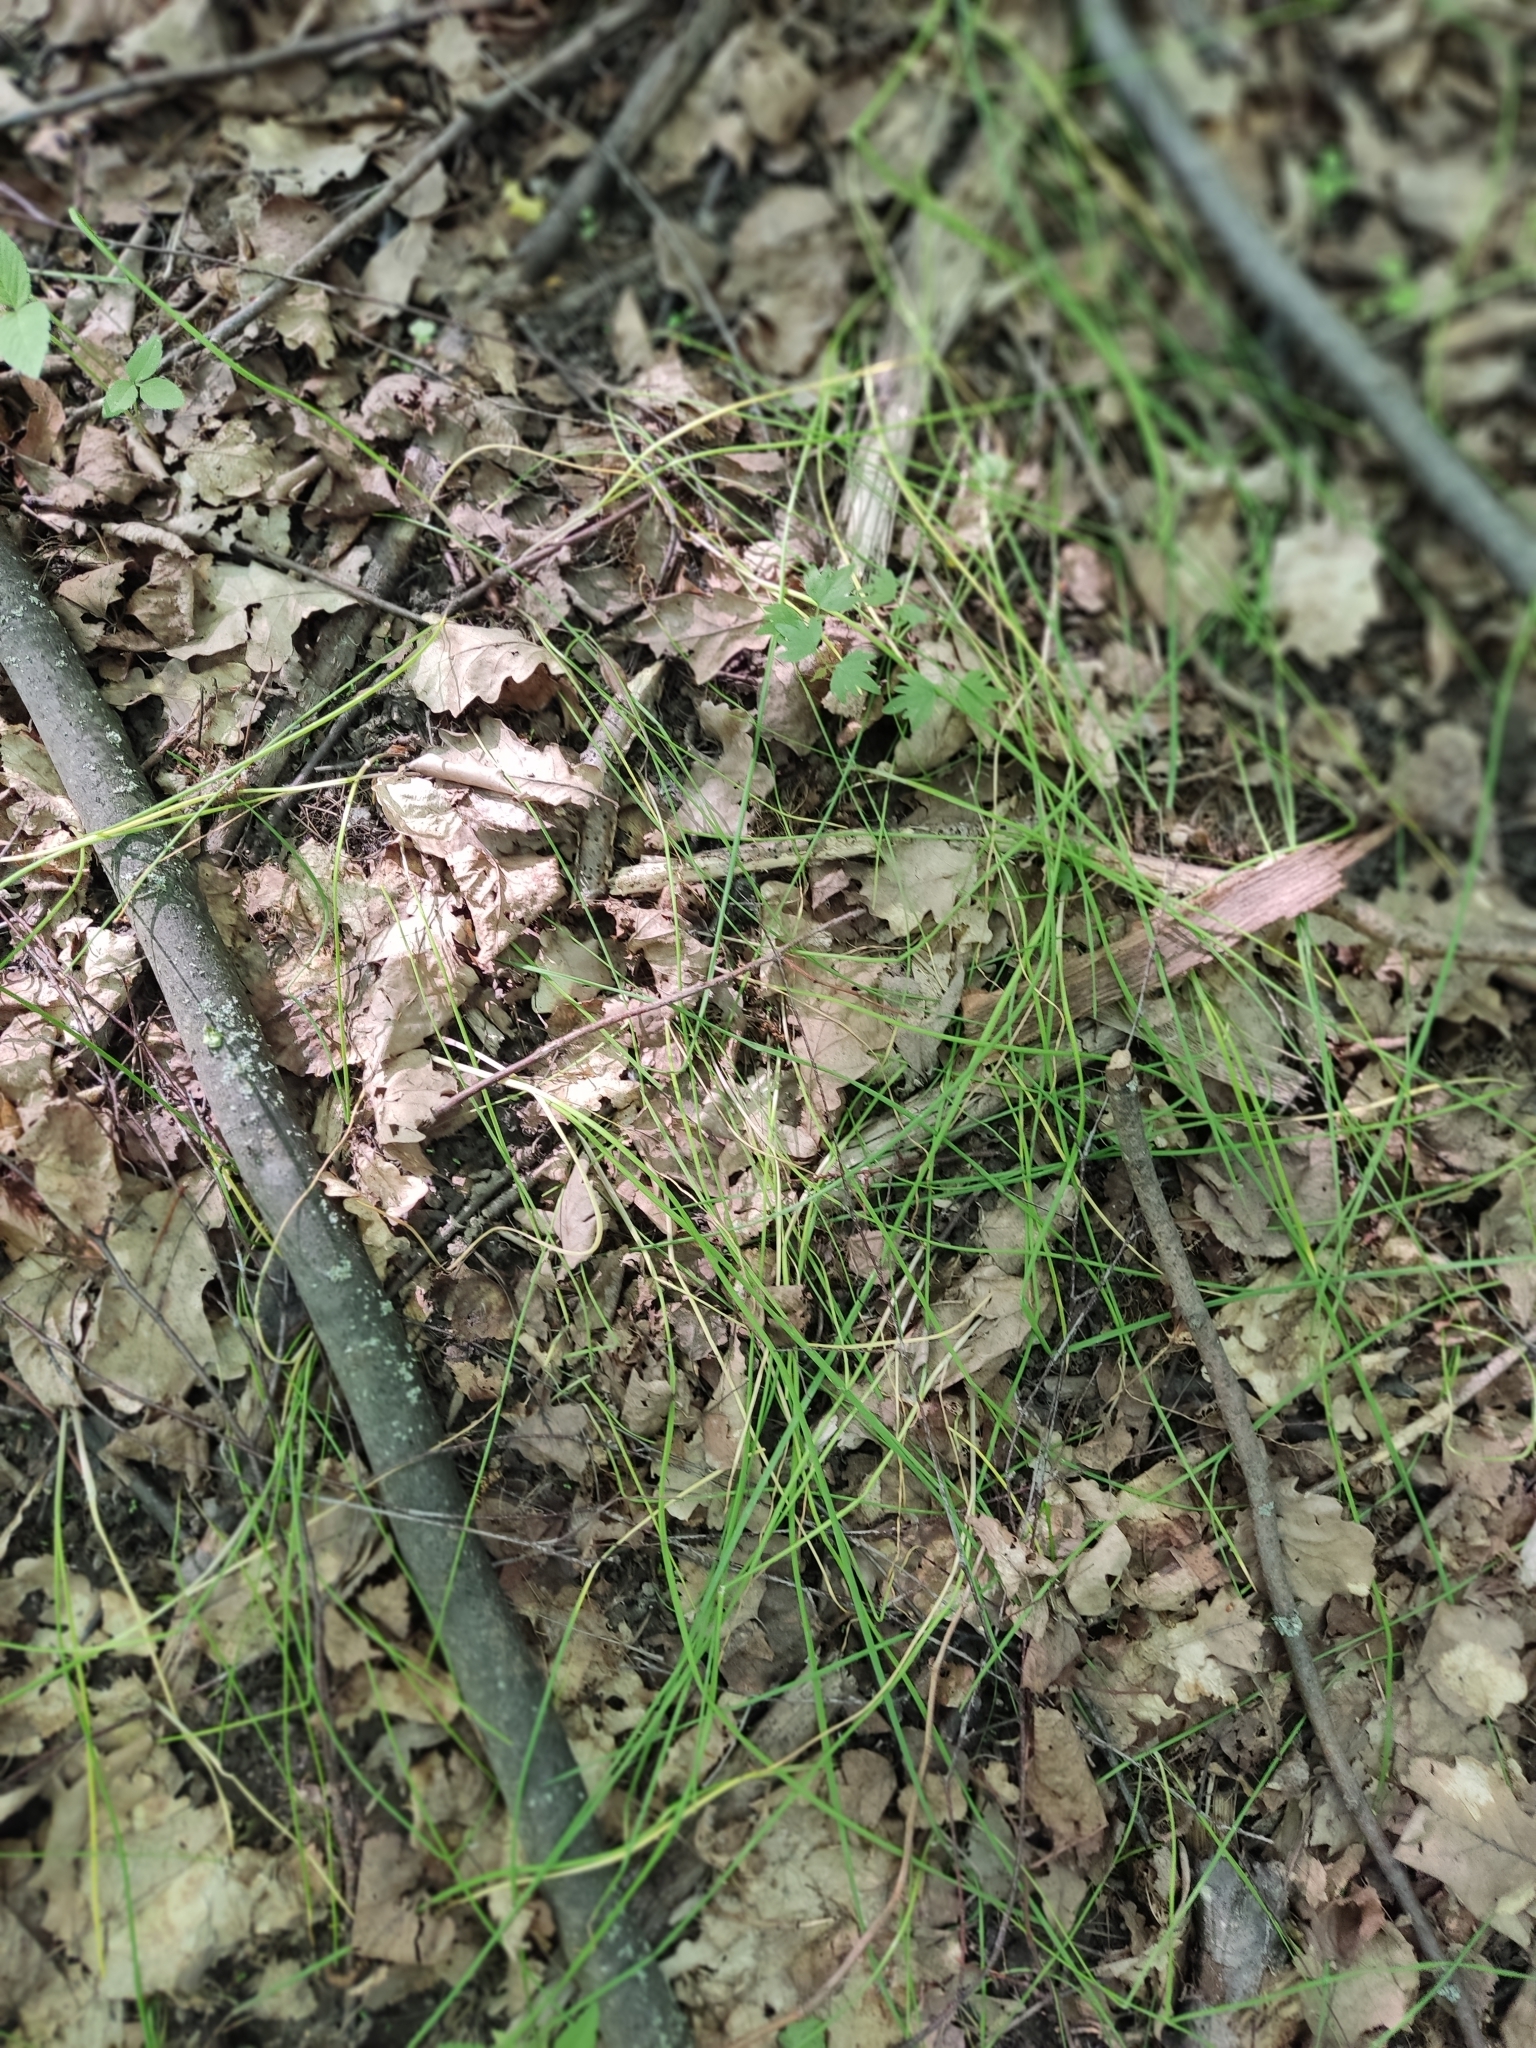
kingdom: Plantae
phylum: Tracheophyta
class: Liliopsida
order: Liliales
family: Liliaceae
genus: Gagea
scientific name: Gagea minima
